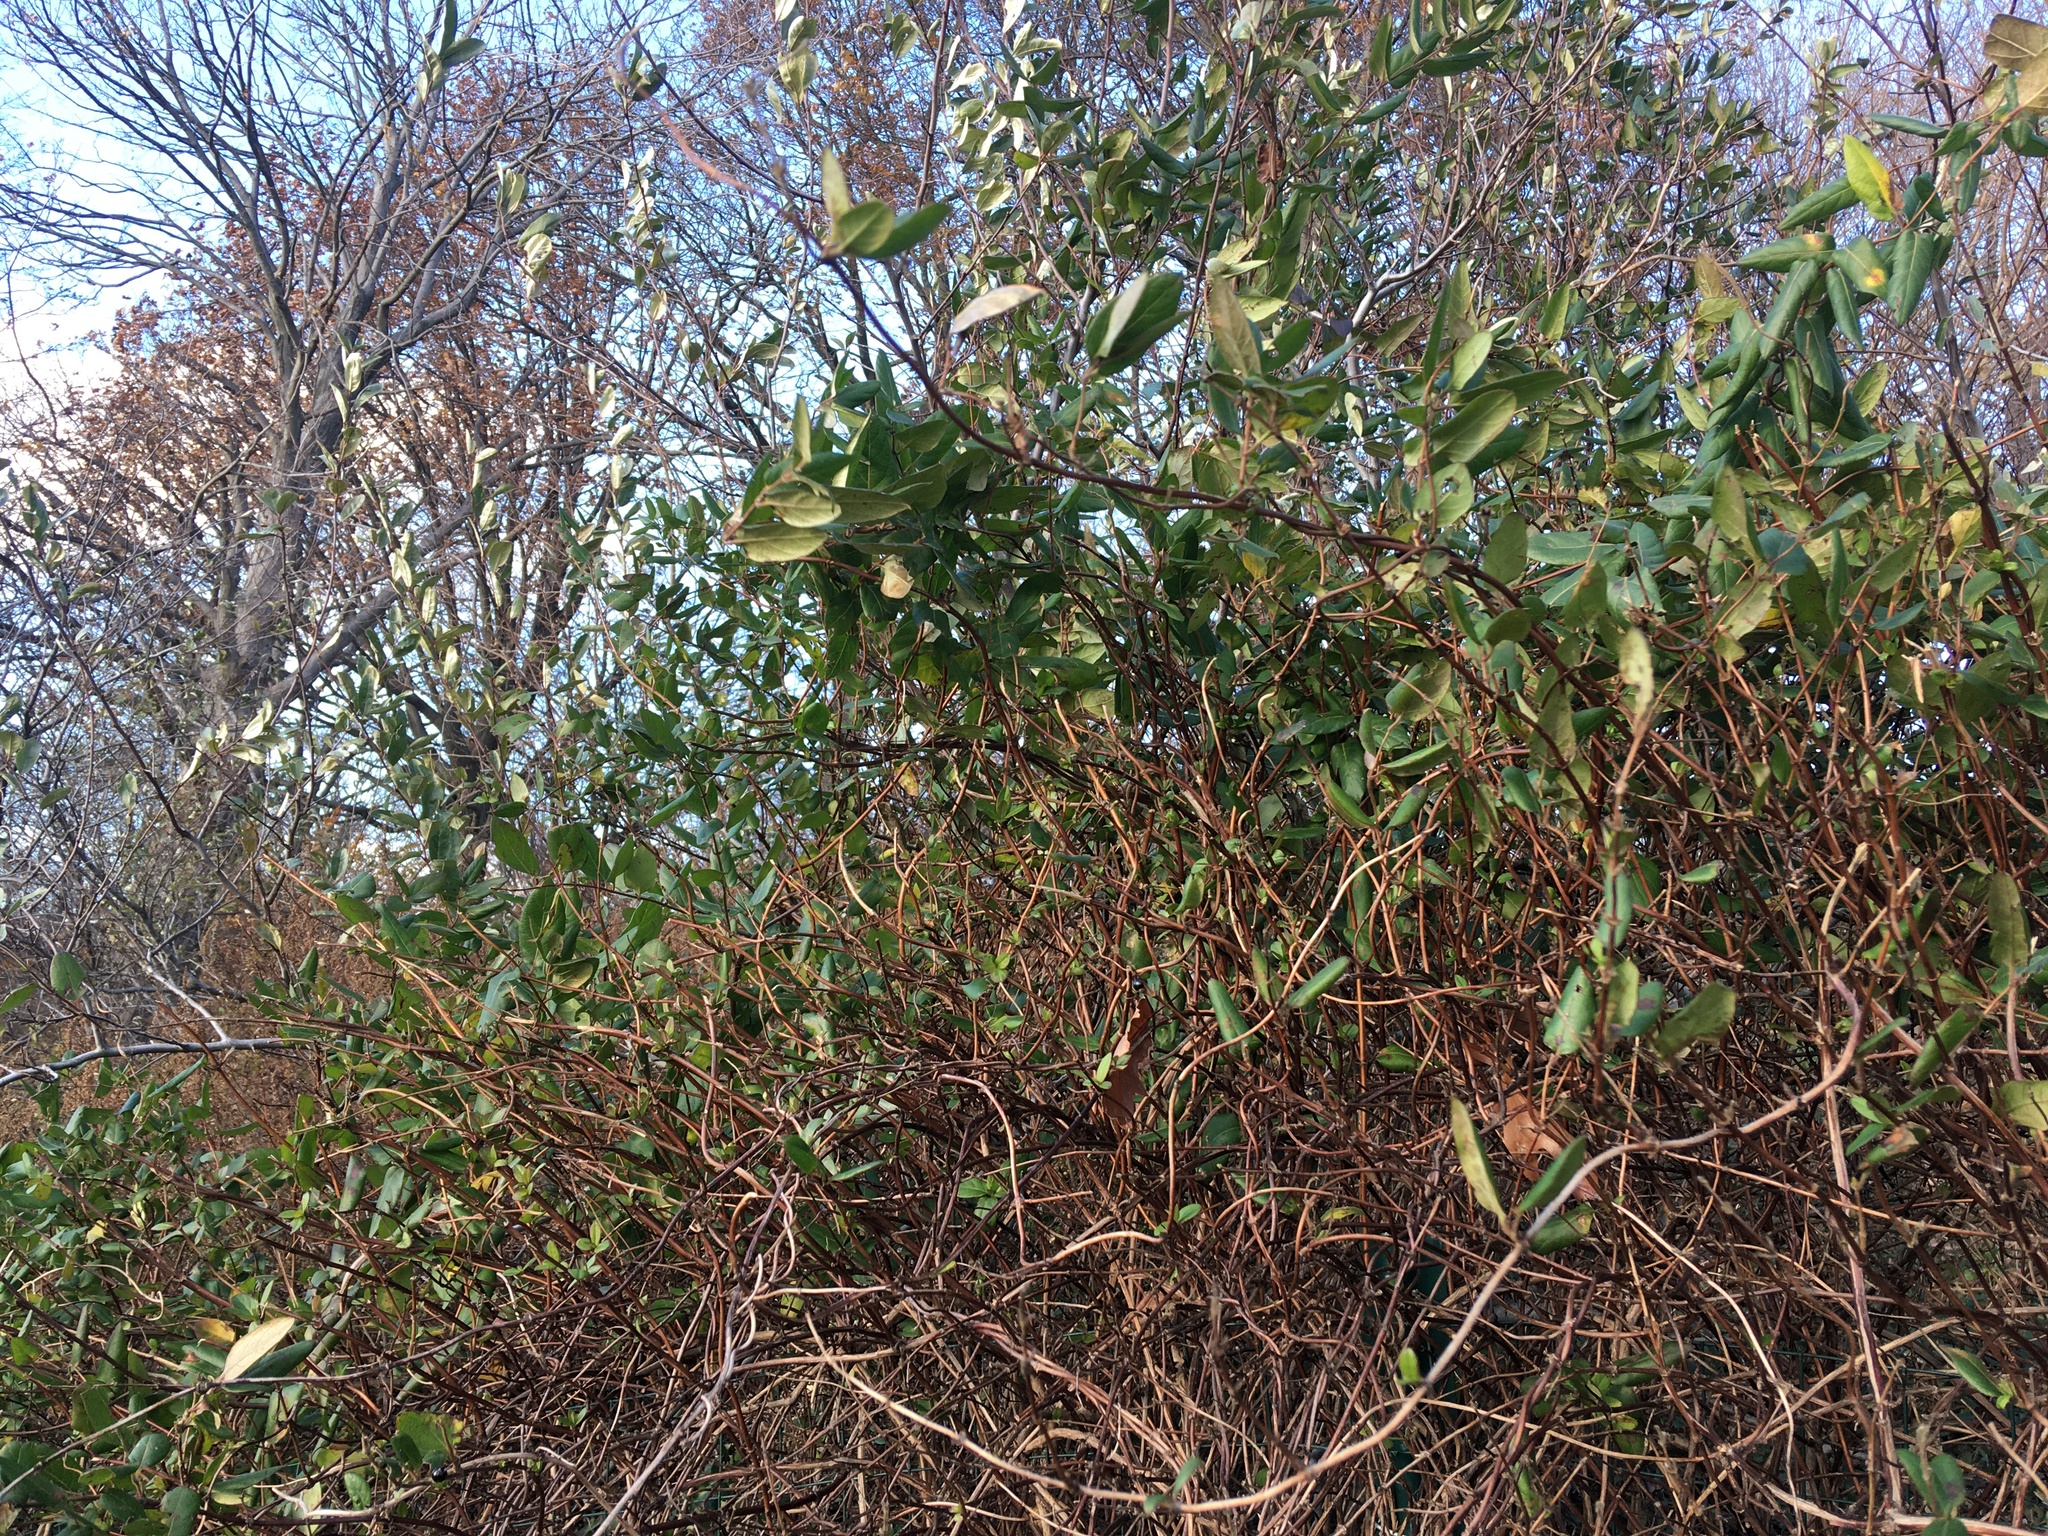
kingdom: Plantae
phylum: Tracheophyta
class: Magnoliopsida
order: Dipsacales
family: Caprifoliaceae
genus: Lonicera
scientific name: Lonicera japonica
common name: Japanese honeysuckle
